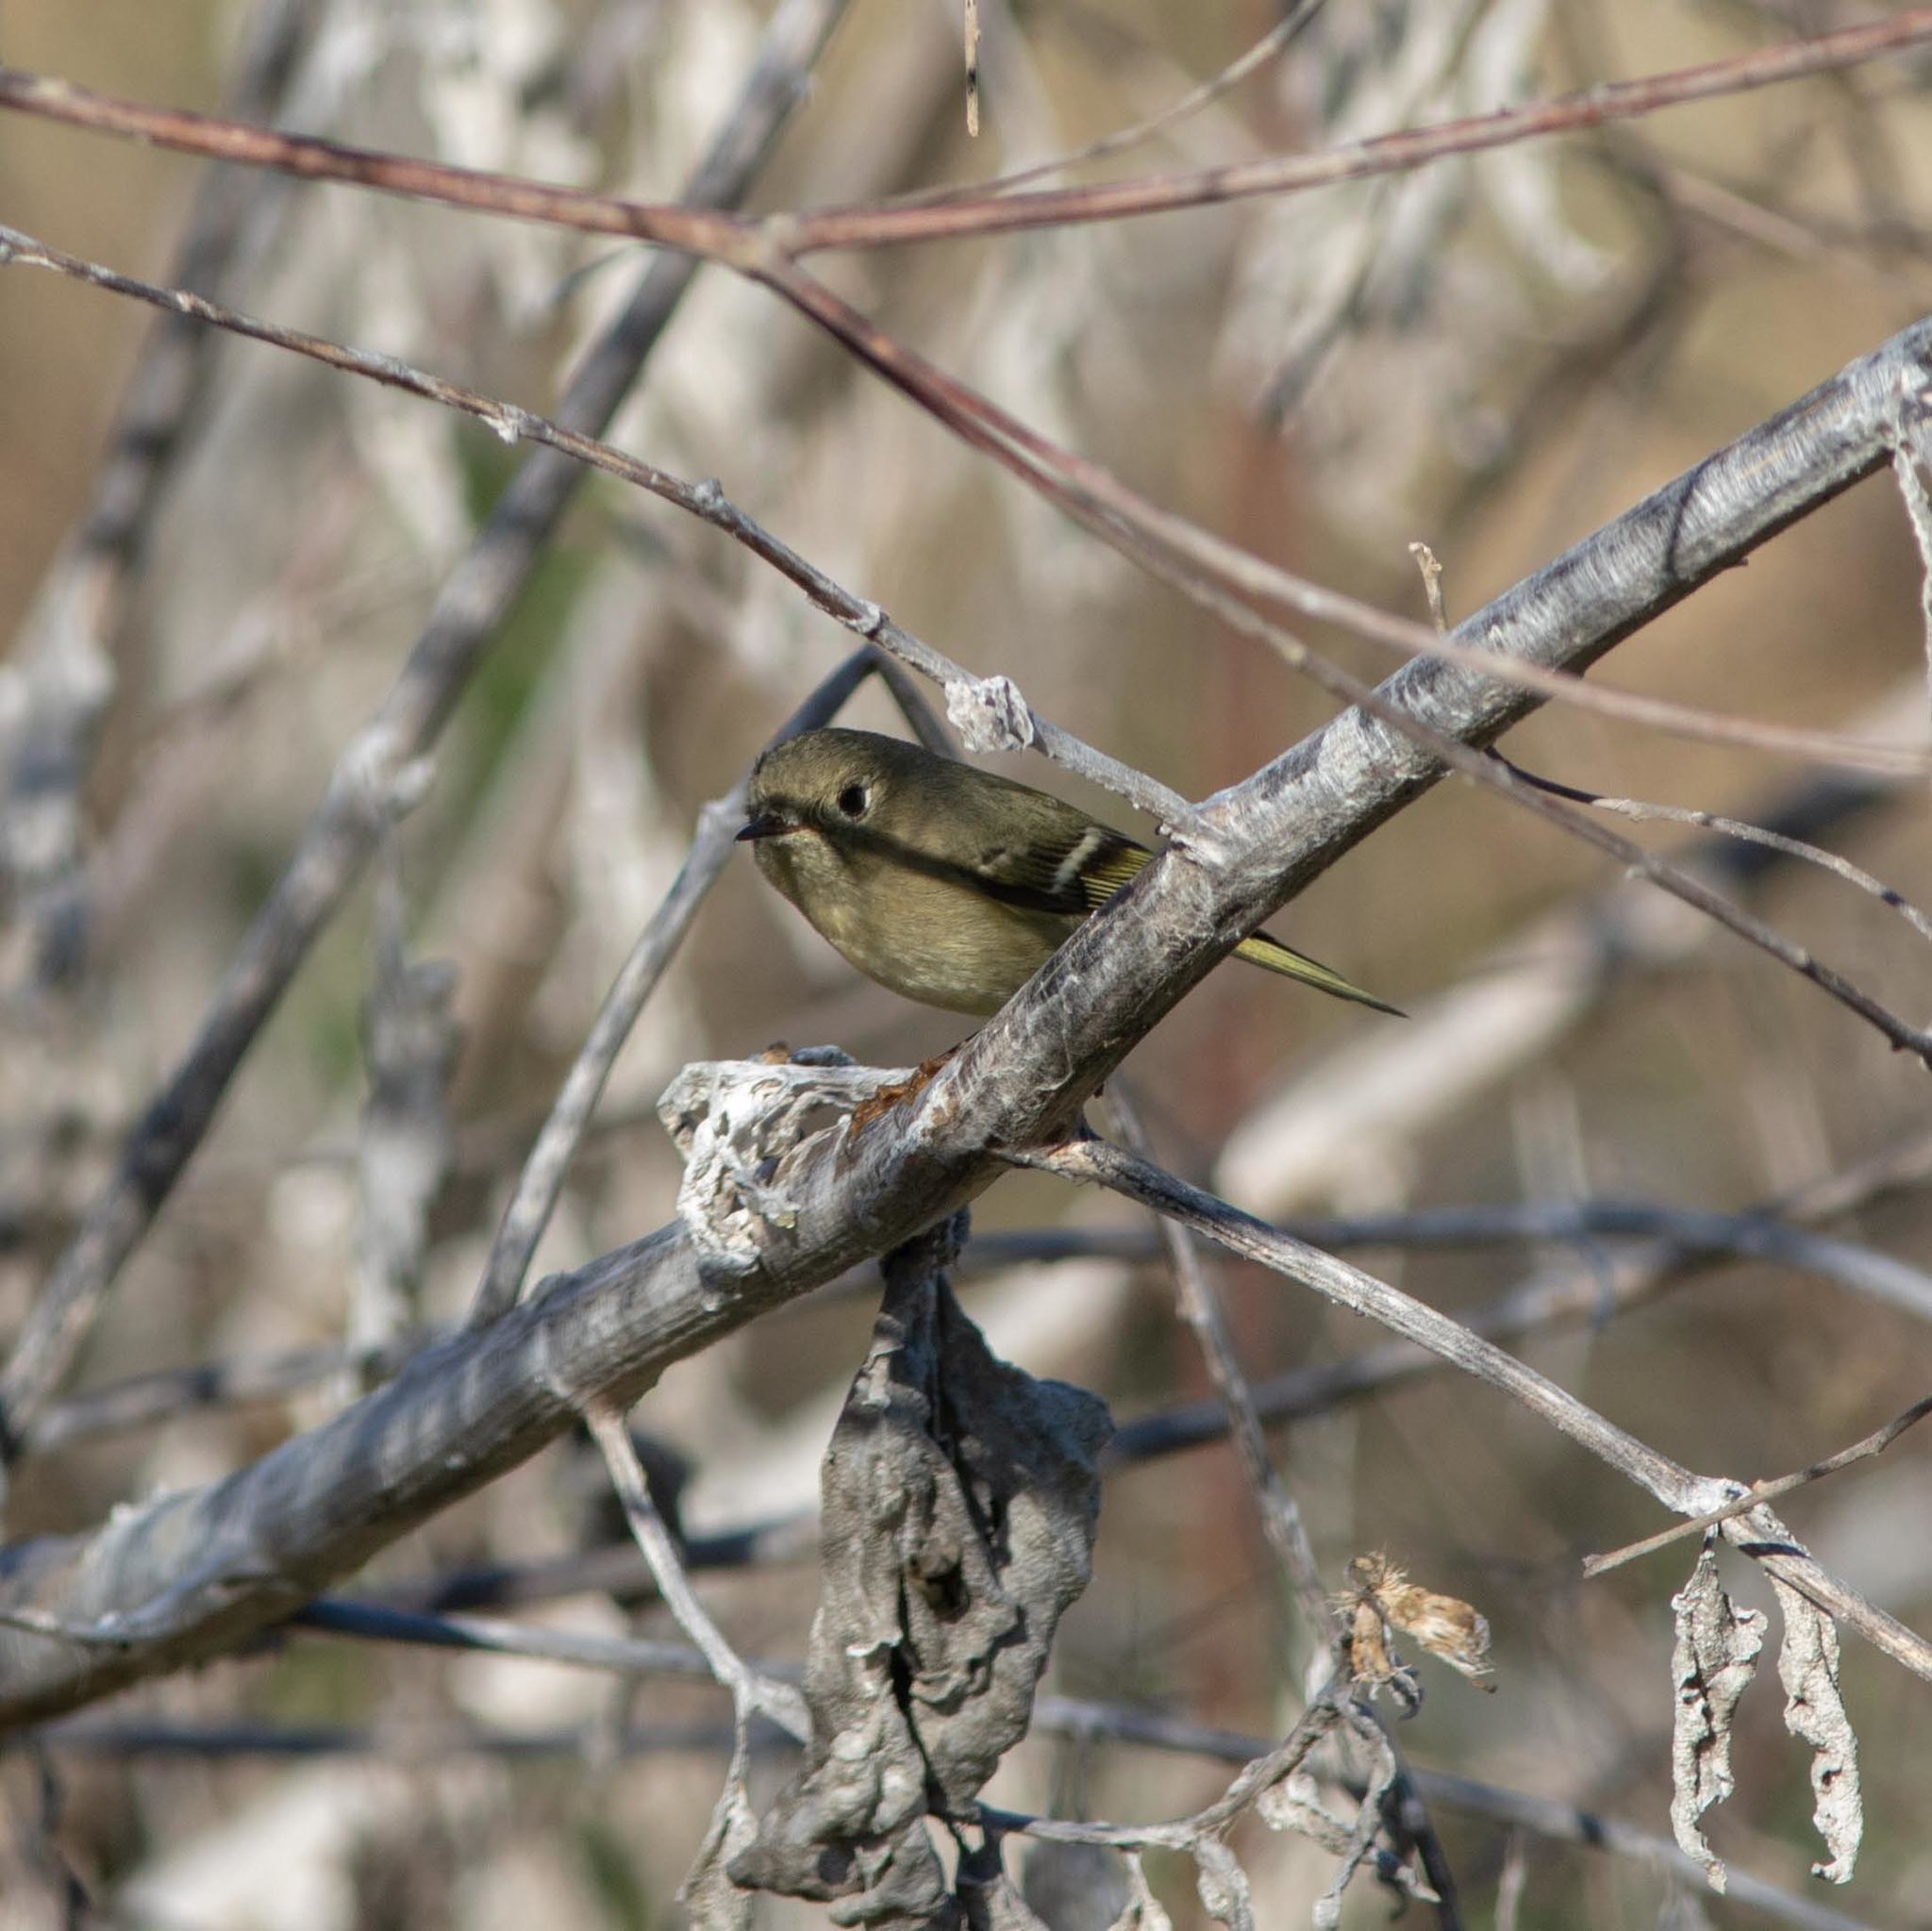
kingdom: Animalia
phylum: Chordata
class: Aves
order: Passeriformes
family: Regulidae
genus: Regulus
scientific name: Regulus calendula
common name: Ruby-crowned kinglet
